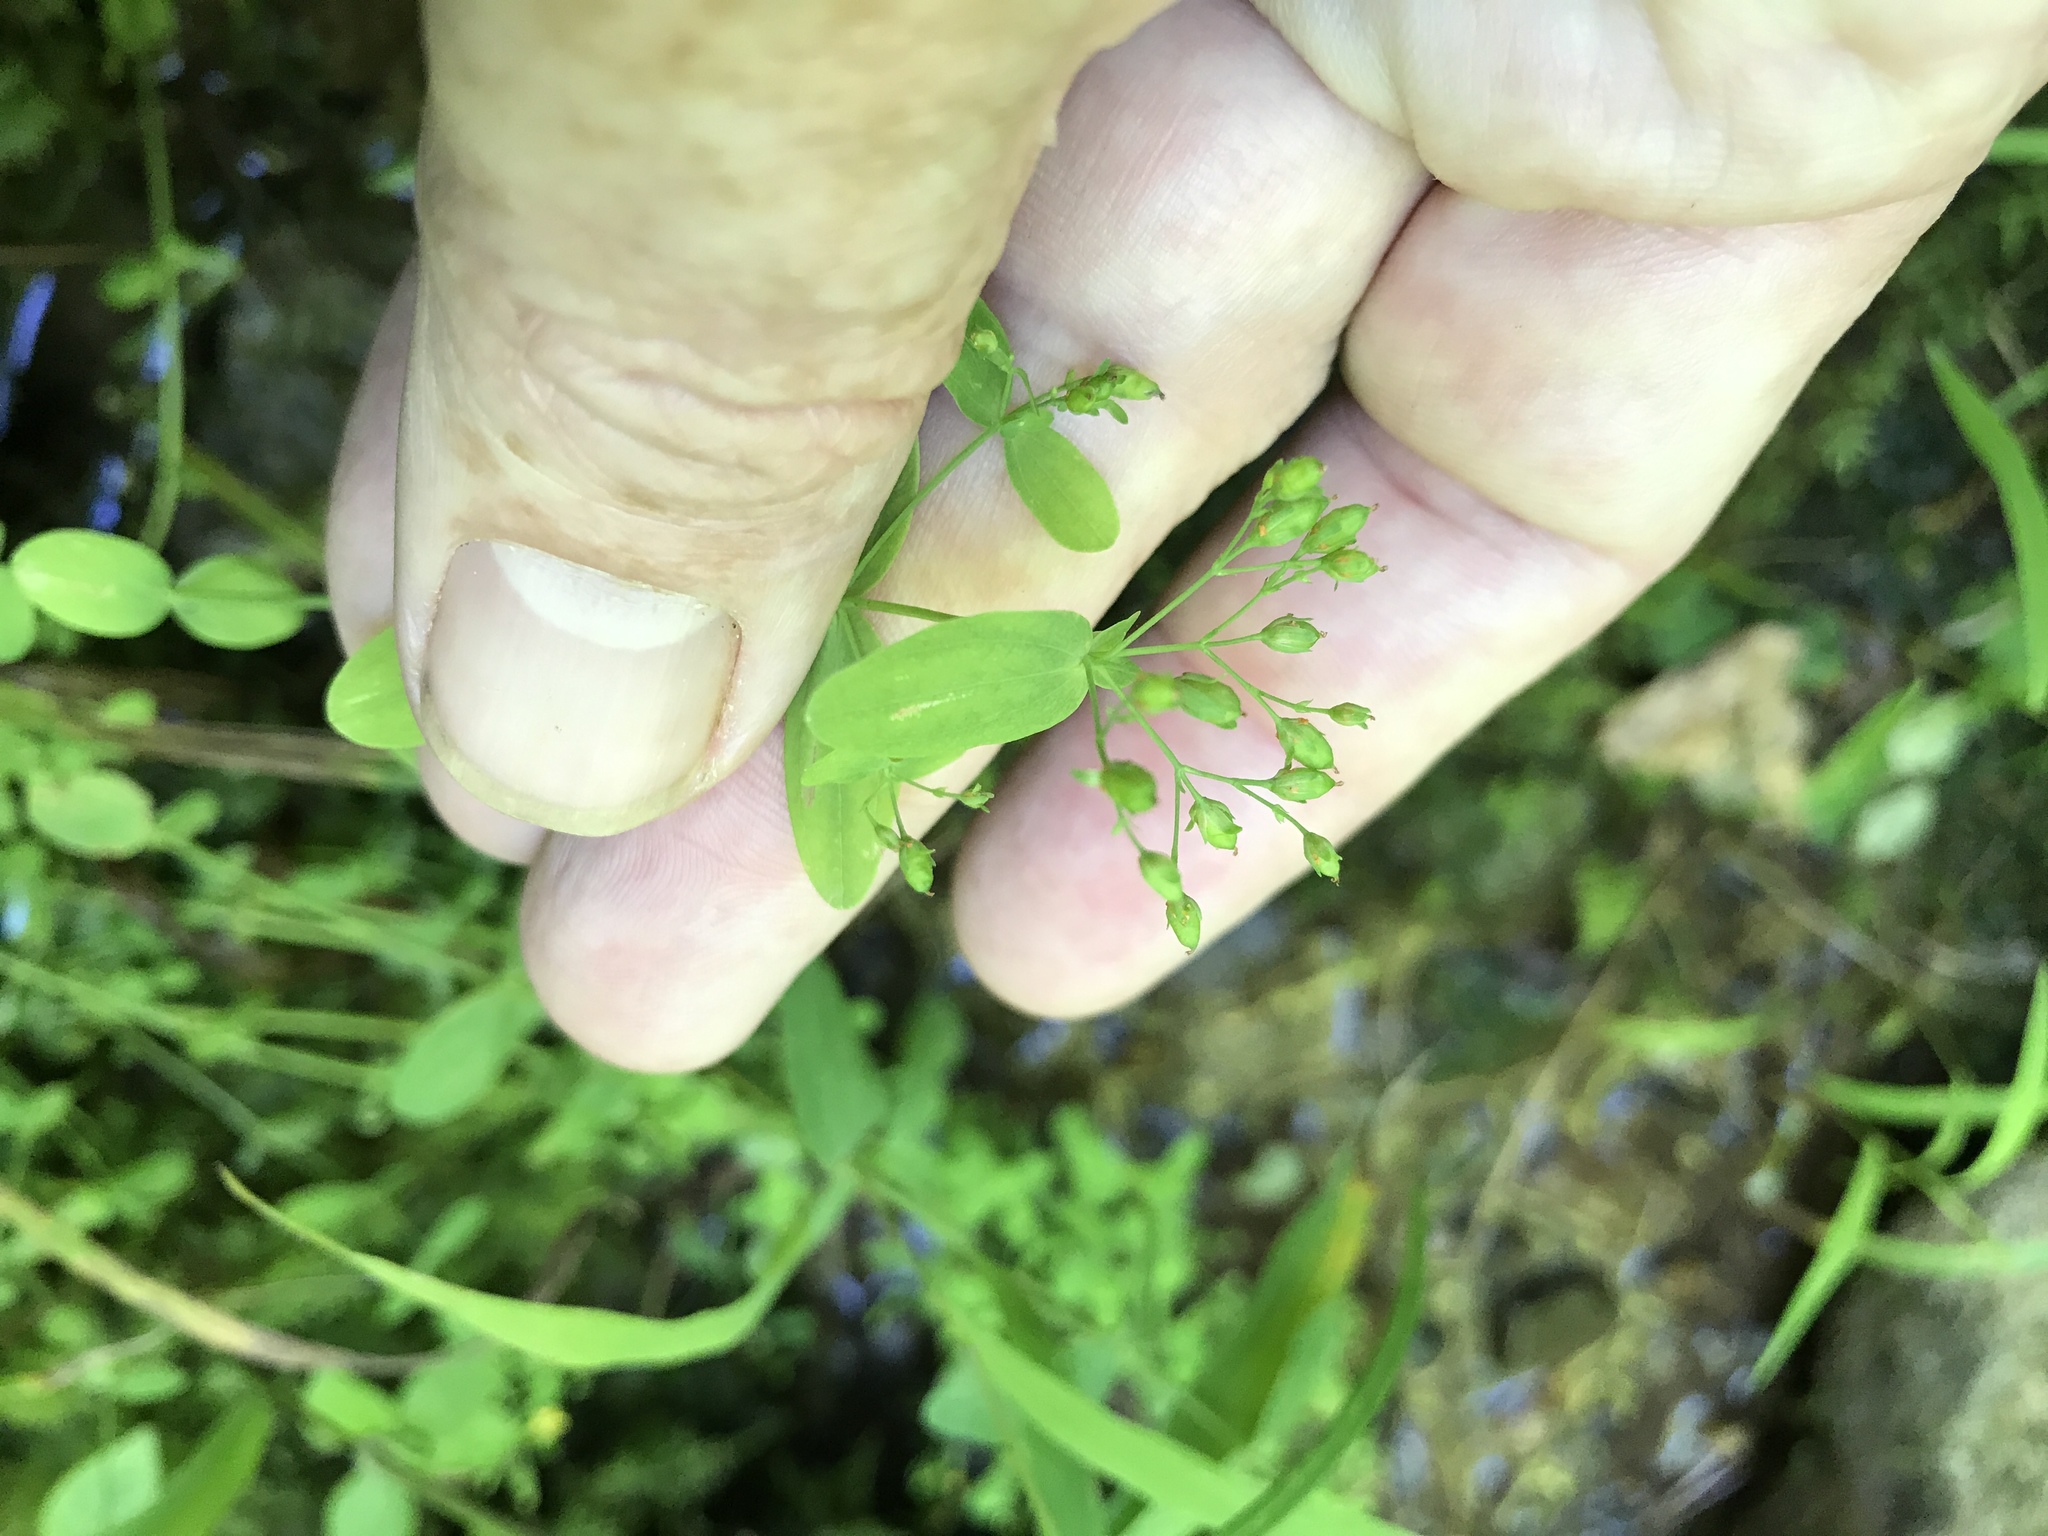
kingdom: Plantae
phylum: Tracheophyta
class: Magnoliopsida
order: Malpighiales
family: Hypericaceae
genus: Hypericum
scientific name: Hypericum mutilum
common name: Dwarf st. john's-wort
